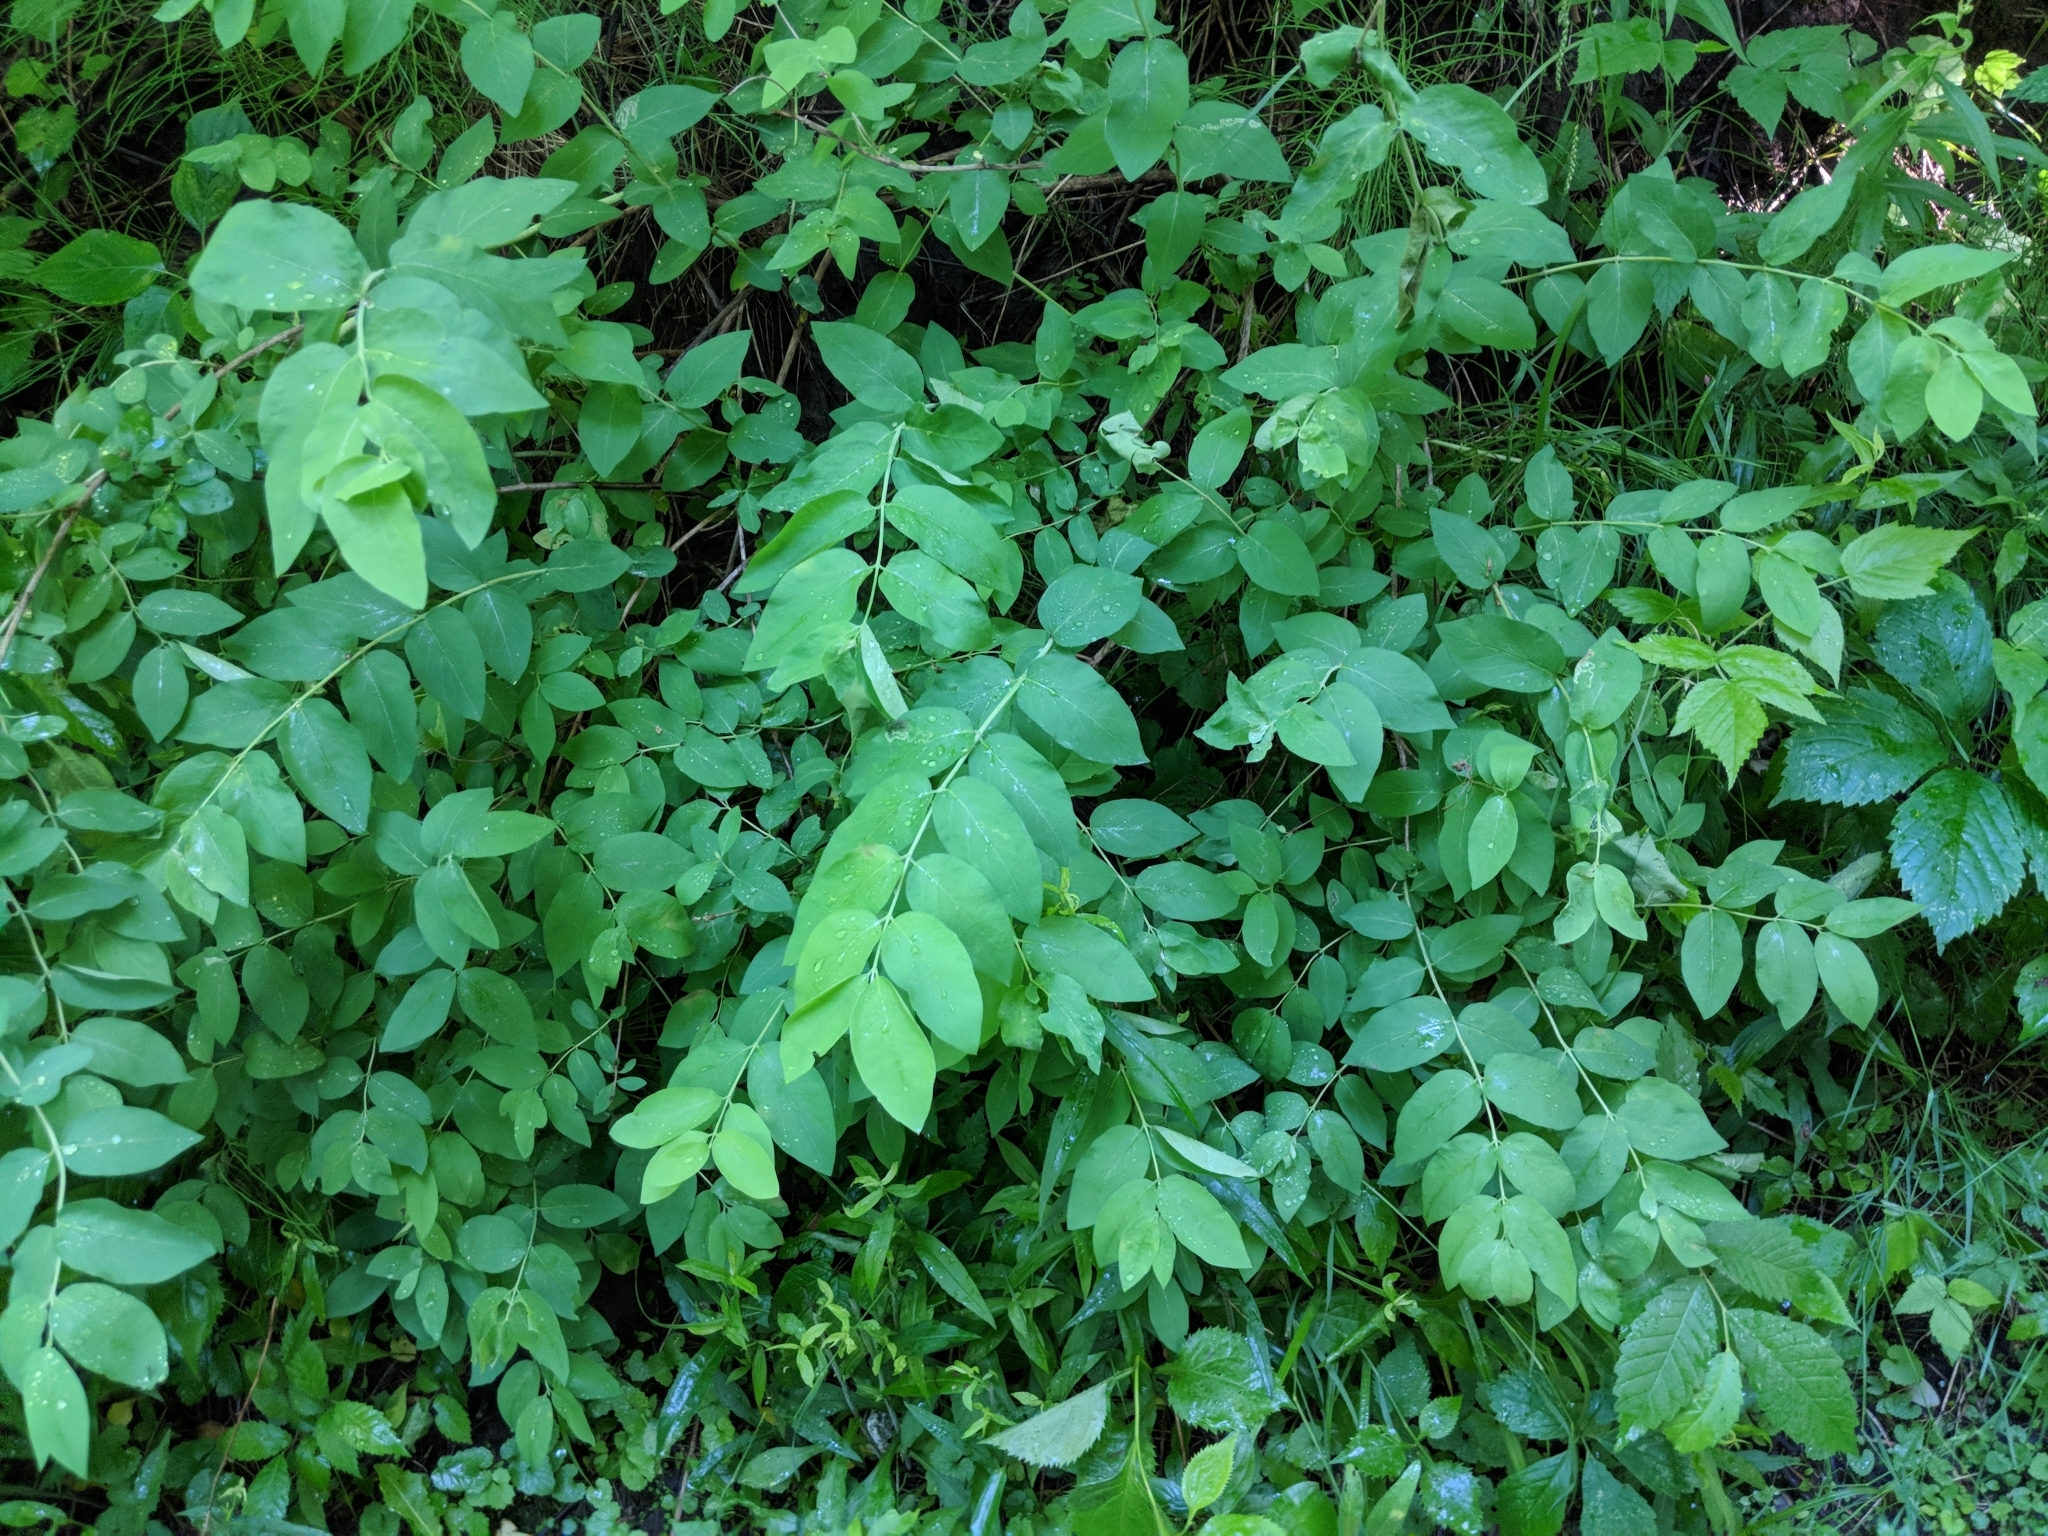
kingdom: Plantae
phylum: Tracheophyta
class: Magnoliopsida
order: Dipsacales
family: Caprifoliaceae
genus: Symphoricarpos
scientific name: Symphoricarpos albus
